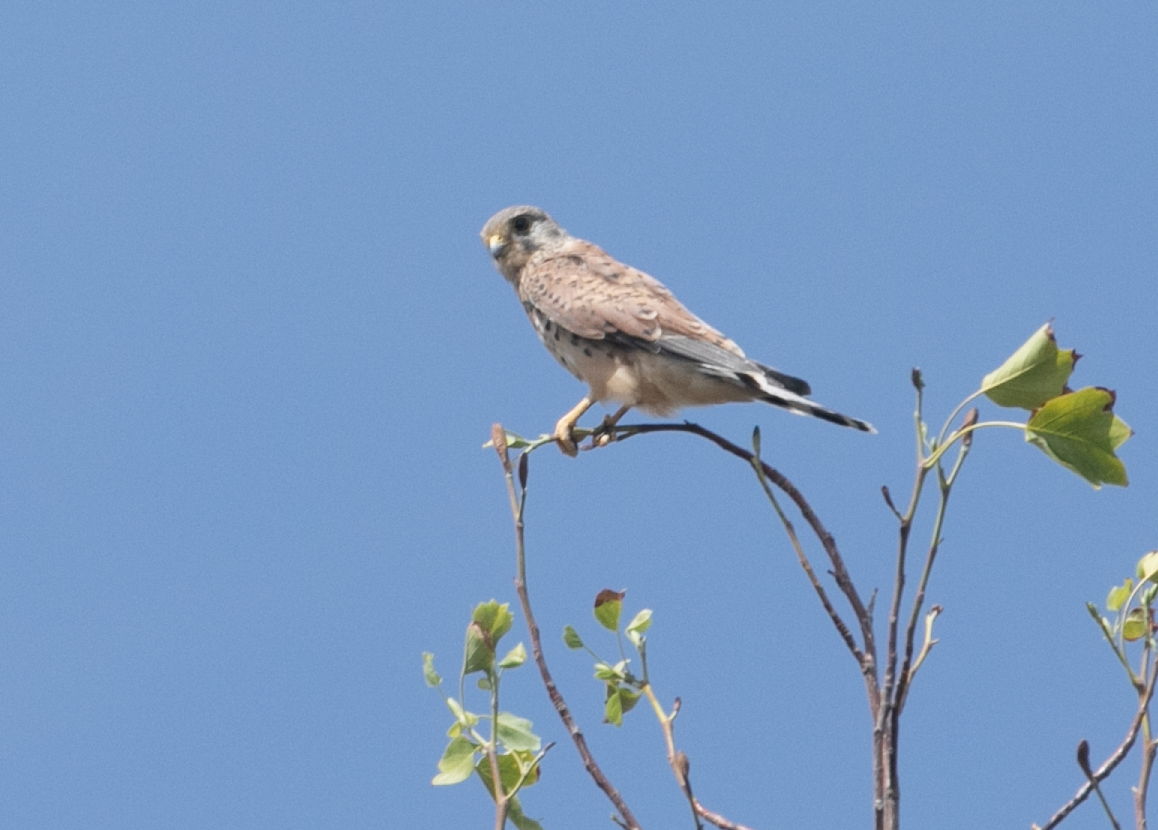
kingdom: Animalia
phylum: Chordata
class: Aves
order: Falconiformes
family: Falconidae
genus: Falco
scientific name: Falco tinnunculus
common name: Common kestrel
